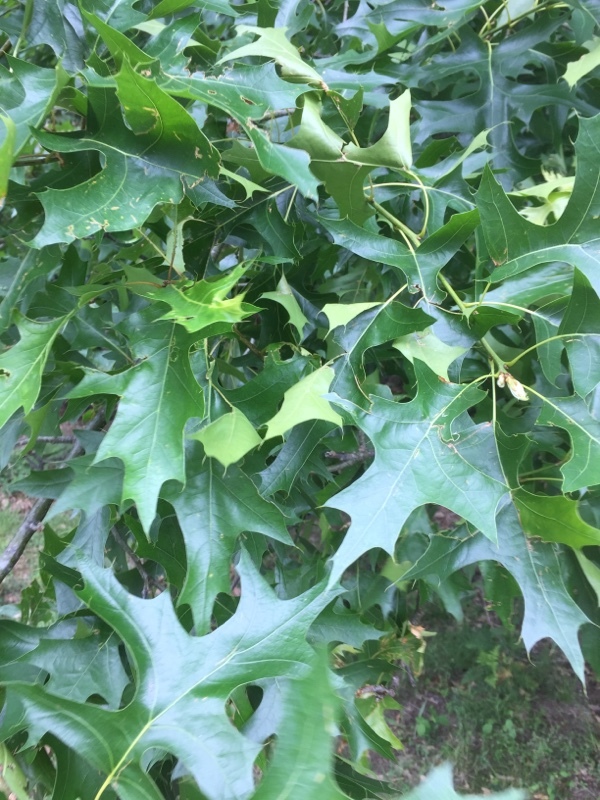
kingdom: Plantae
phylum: Tracheophyta
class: Magnoliopsida
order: Fagales
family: Fagaceae
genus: Quercus
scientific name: Quercus palustris
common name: Pin oak
